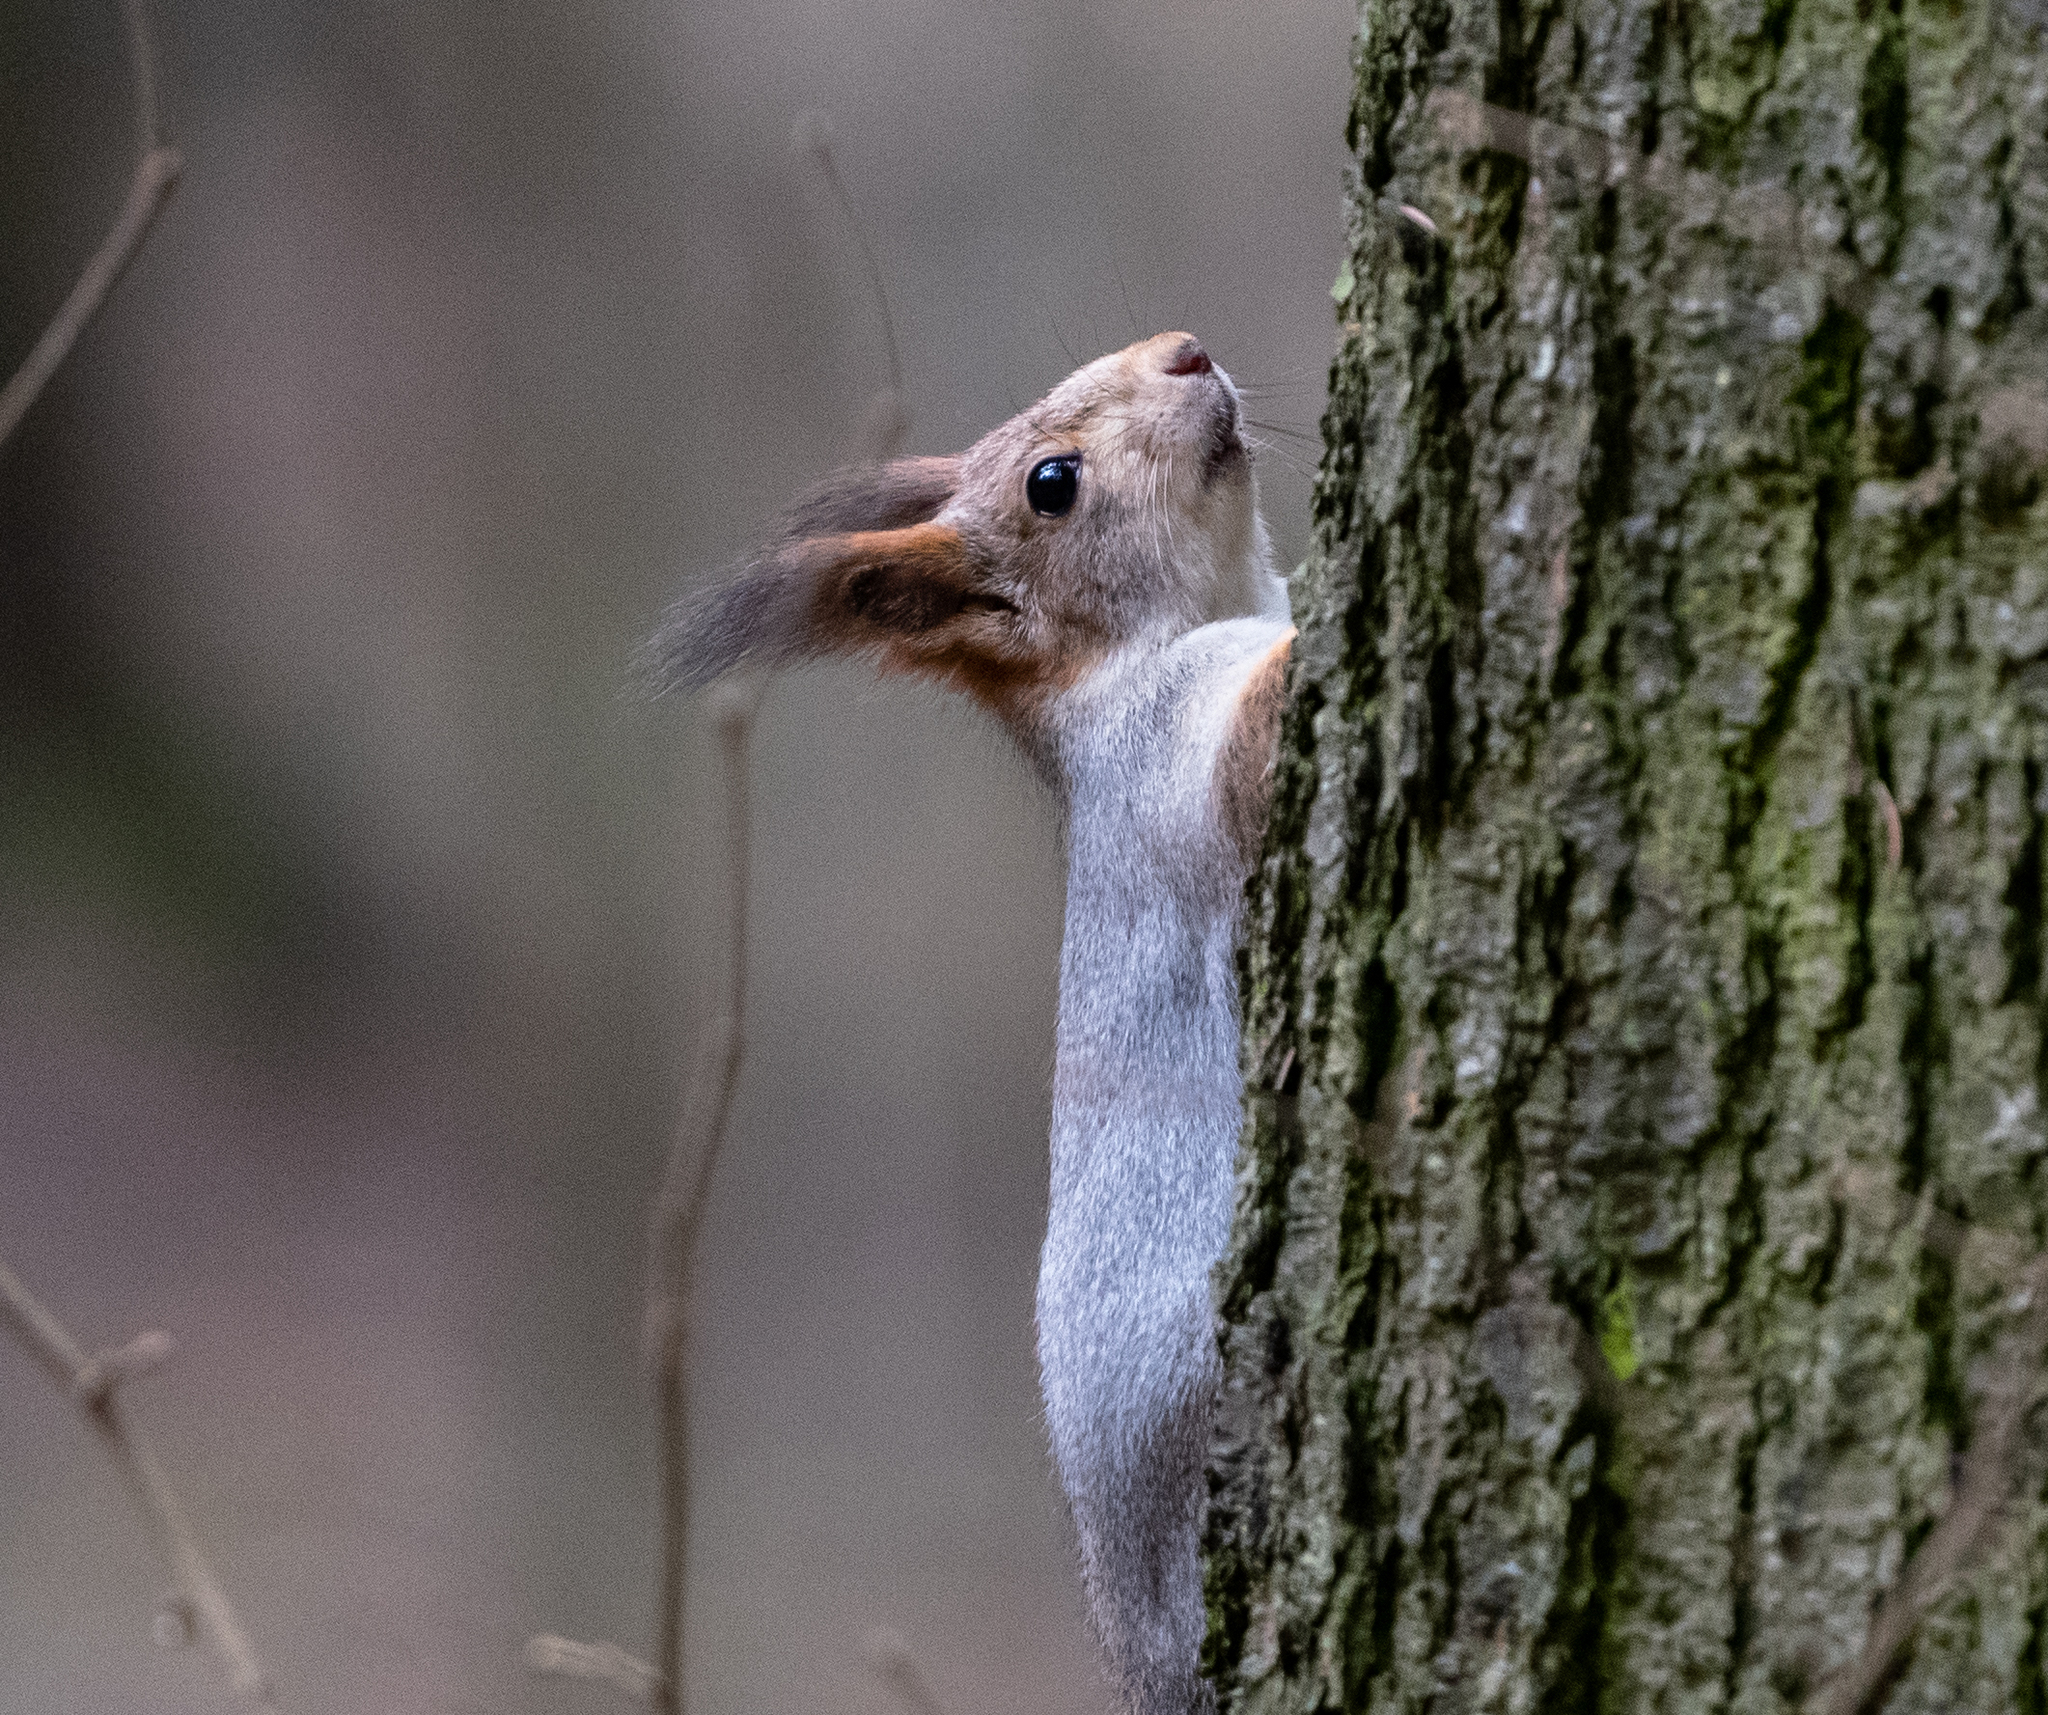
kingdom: Animalia
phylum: Chordata
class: Mammalia
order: Rodentia
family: Sciuridae
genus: Sciurus
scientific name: Sciurus vulgaris
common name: Eurasian red squirrel
